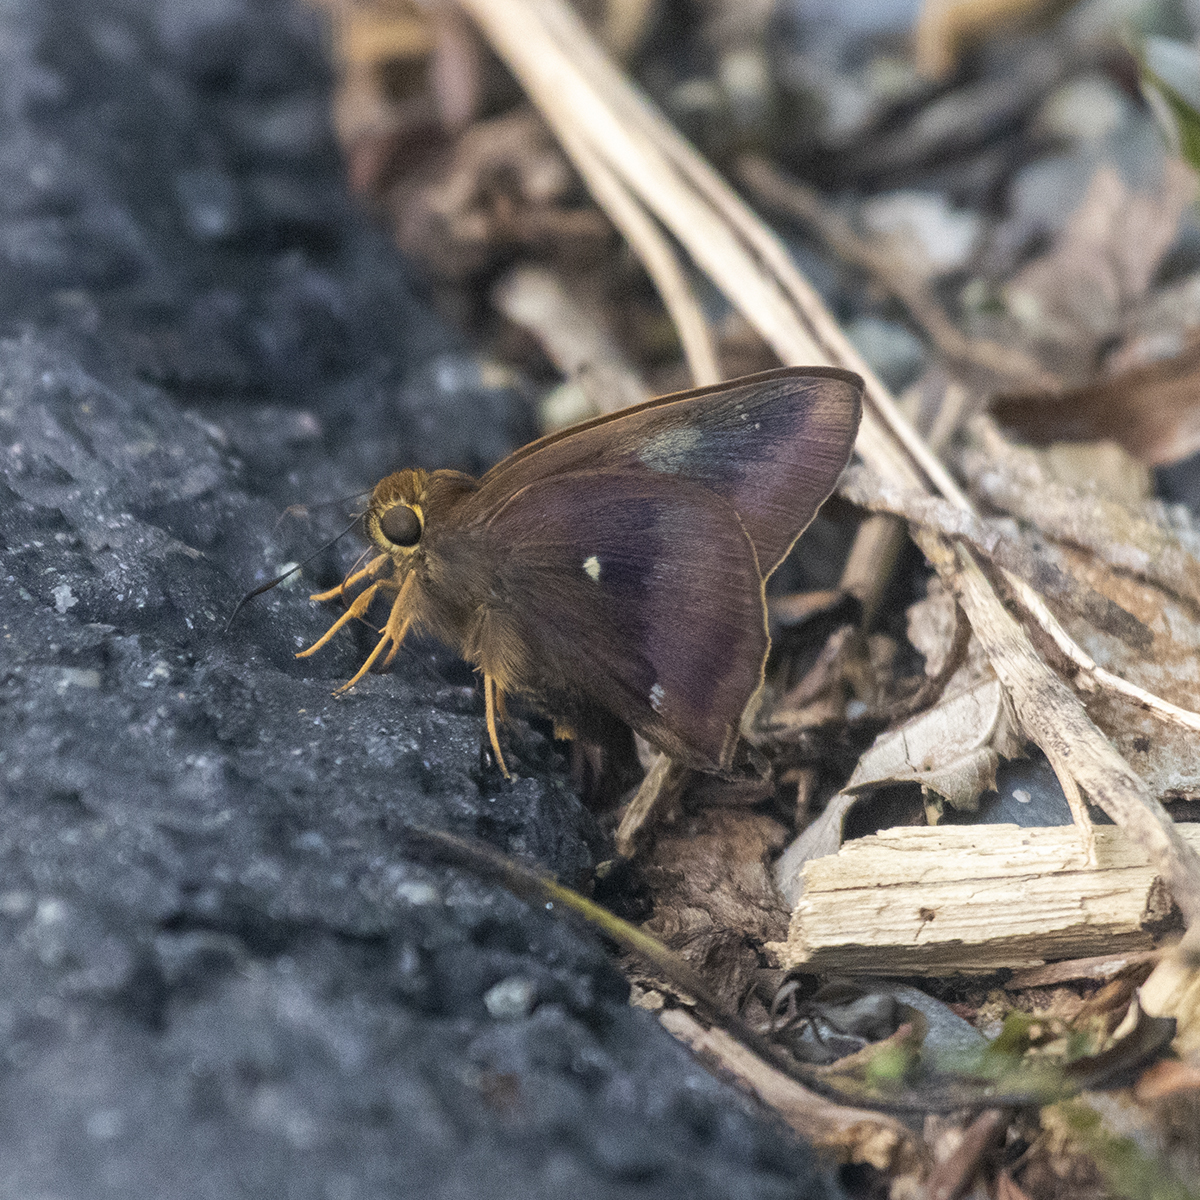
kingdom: Animalia
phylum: Arthropoda
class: Insecta
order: Lepidoptera
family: Hesperiidae
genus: Hasora
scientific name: Hasora badra
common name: Common awl
